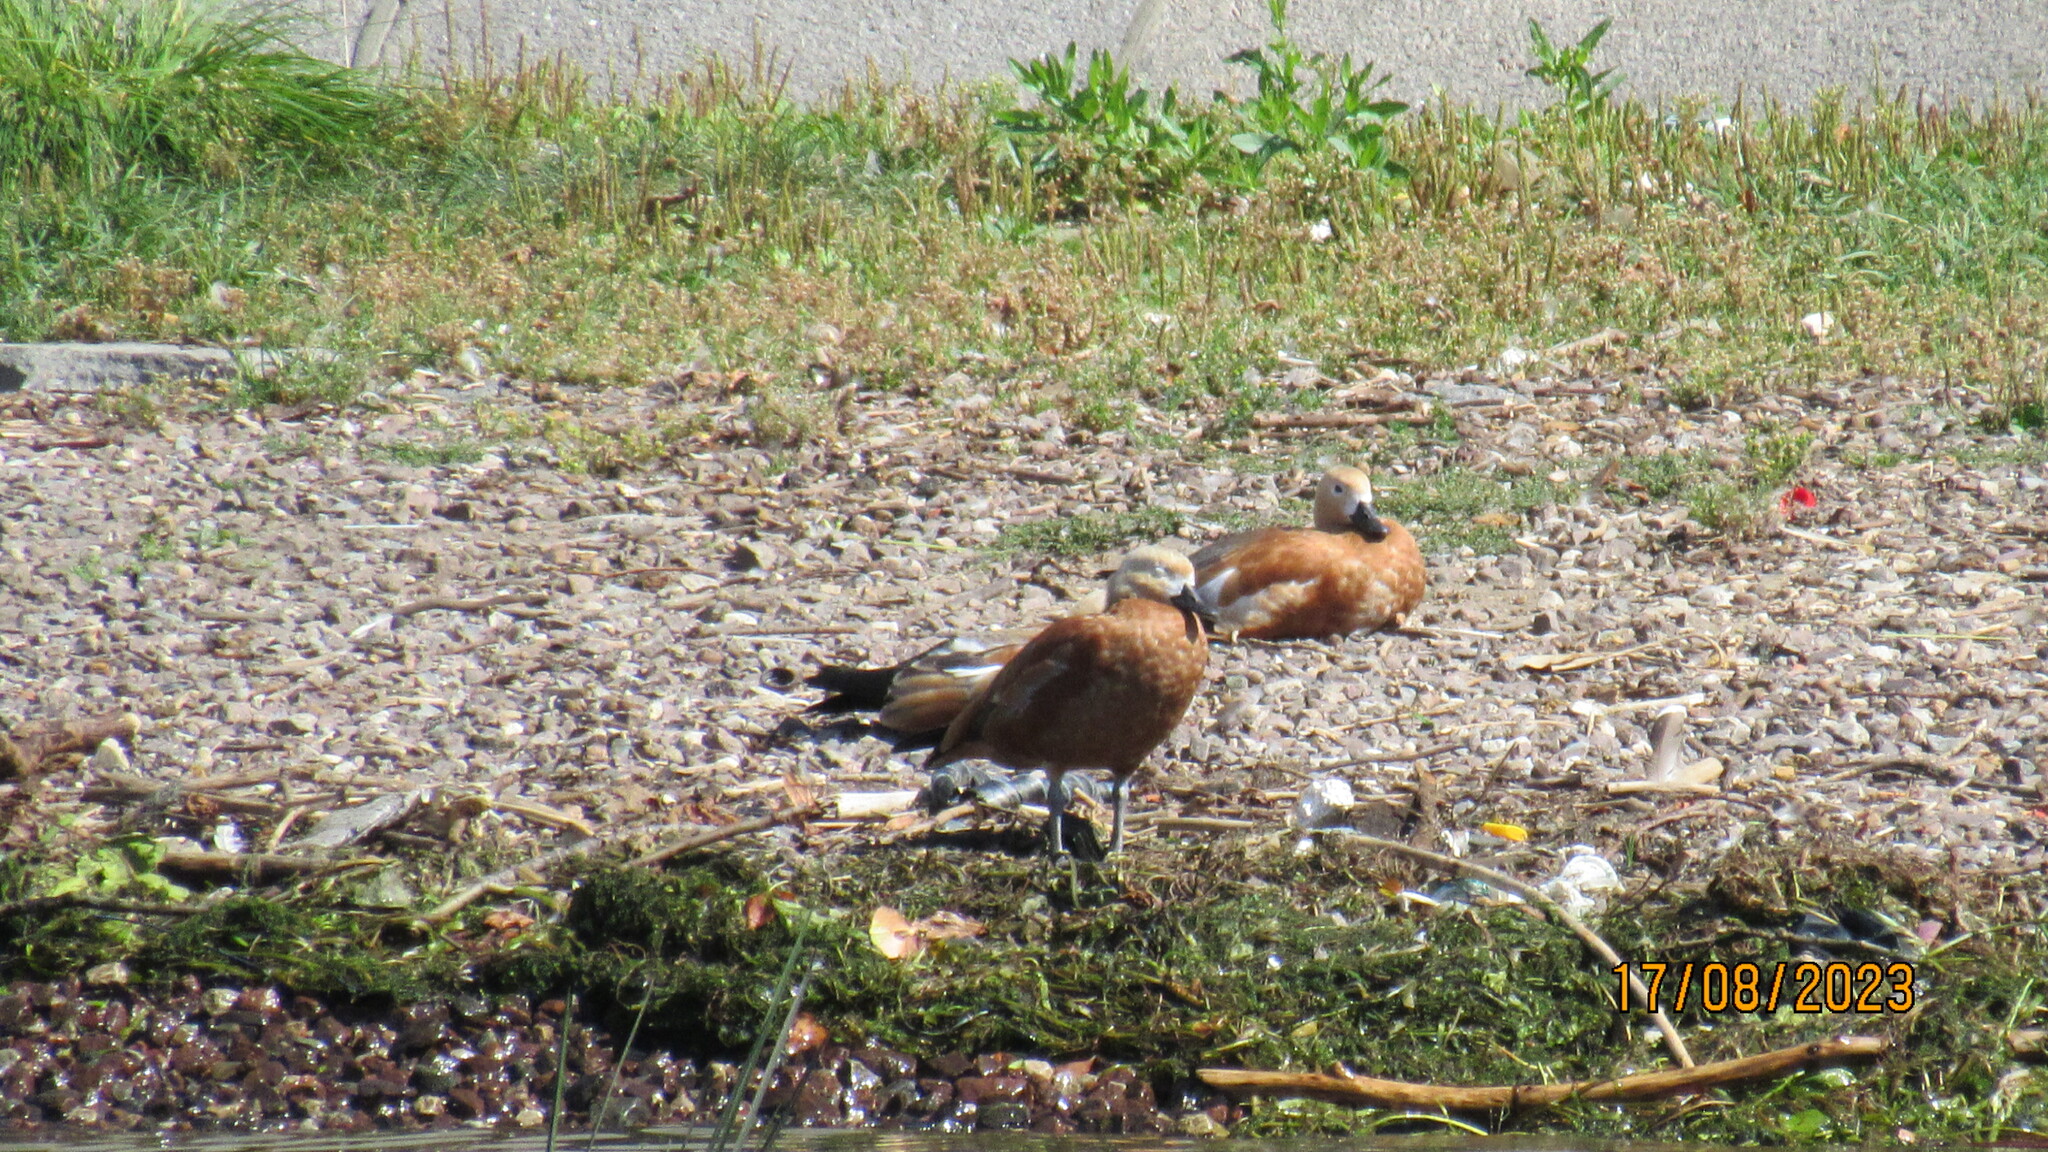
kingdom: Animalia
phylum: Chordata
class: Aves
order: Anseriformes
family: Anatidae
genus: Tadorna
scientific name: Tadorna ferruginea
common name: Ruddy shelduck
